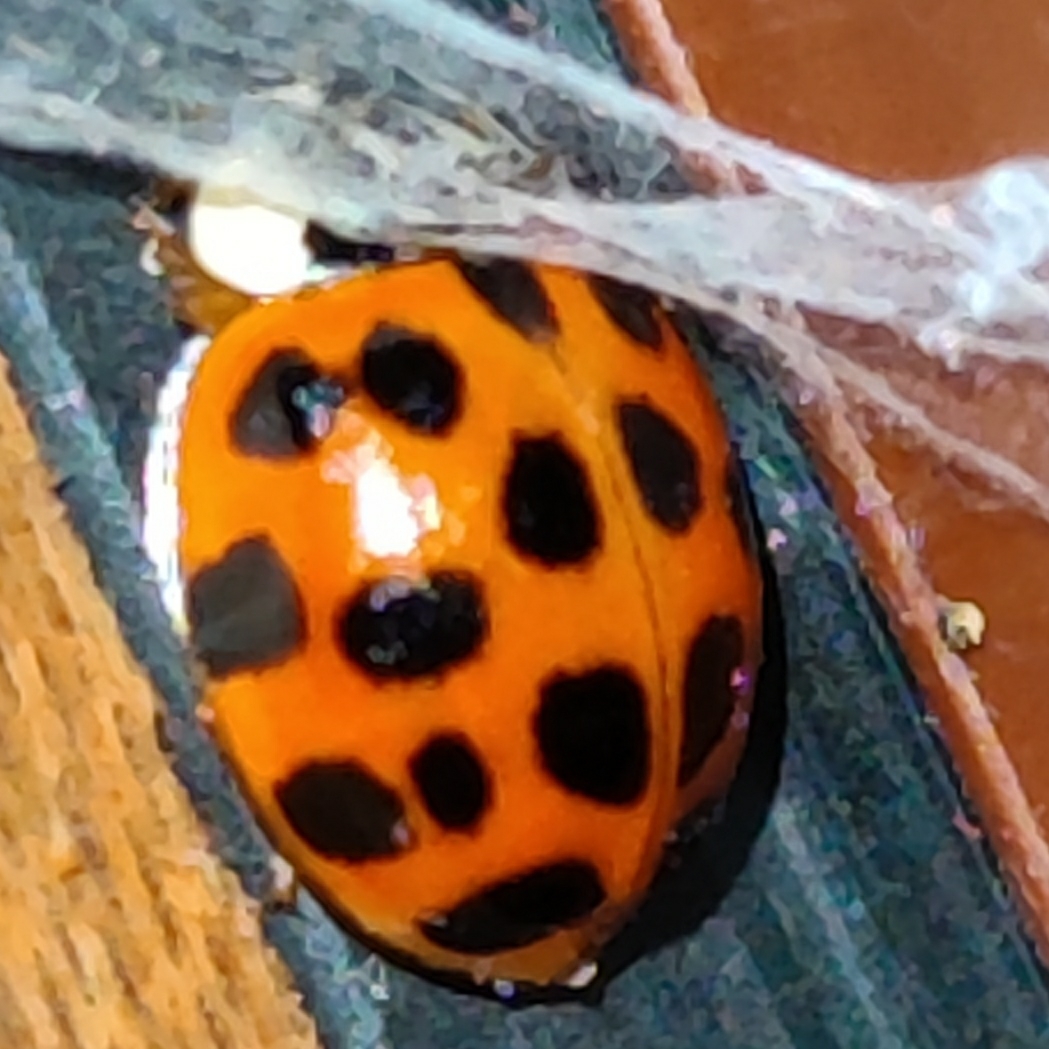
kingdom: Animalia
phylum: Arthropoda
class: Insecta
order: Coleoptera
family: Coccinellidae
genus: Harmonia
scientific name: Harmonia axyridis
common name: Harlequin ladybird
